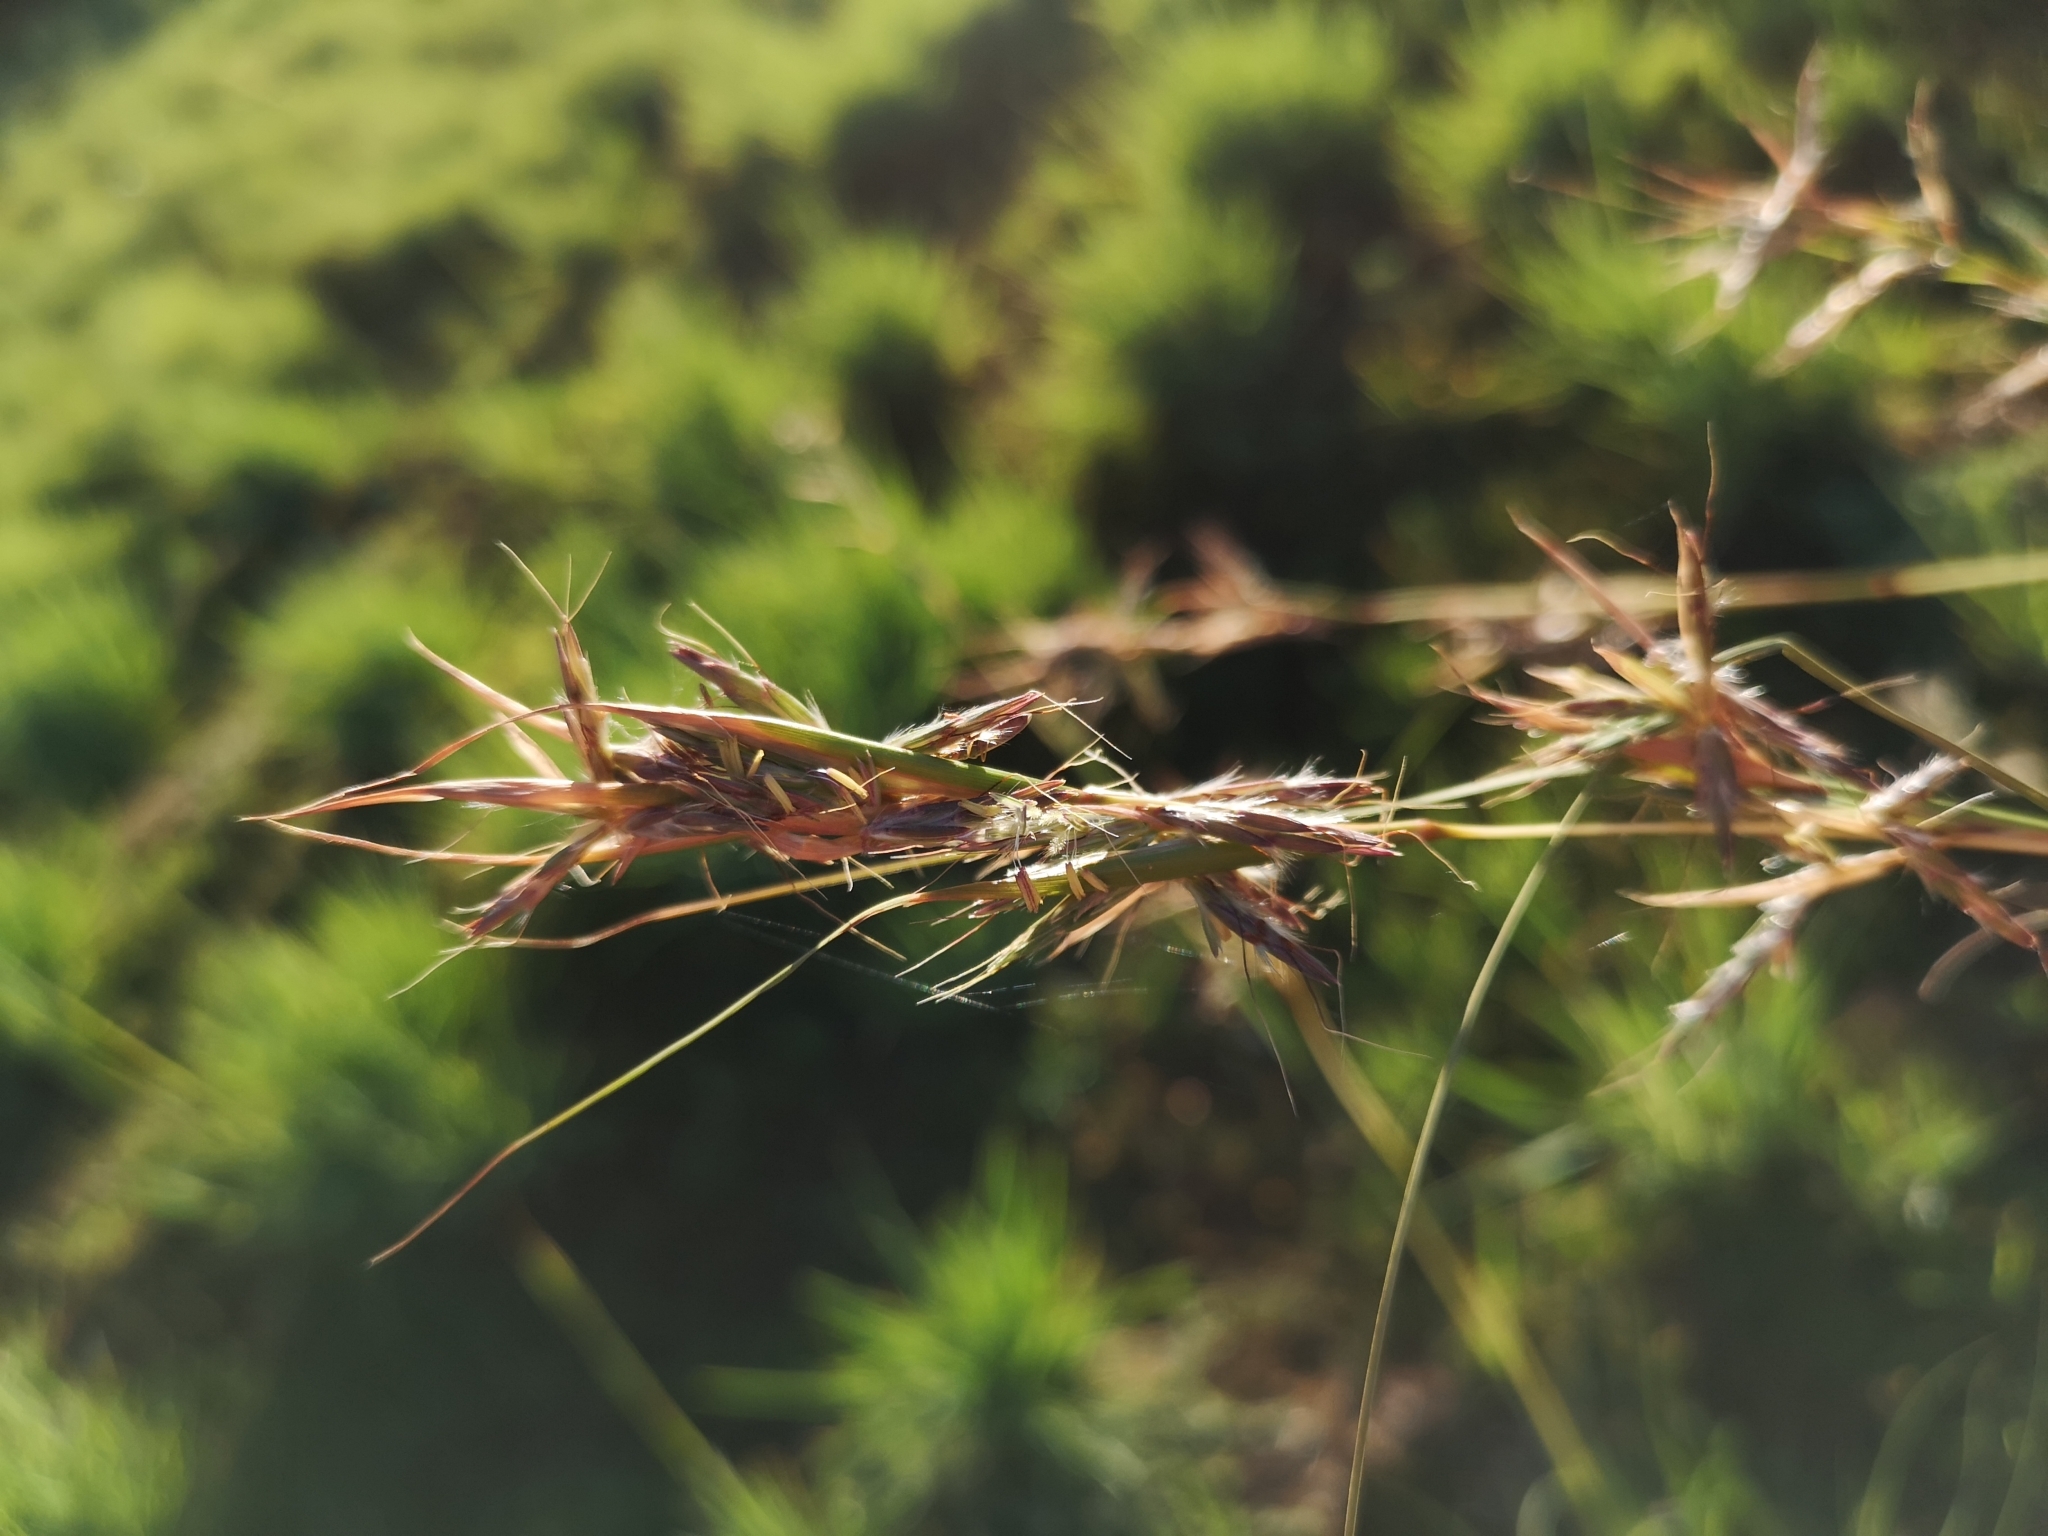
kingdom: Plantae
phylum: Tracheophyta
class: Liliopsida
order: Poales
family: Poaceae
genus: Cymbopogon
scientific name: Cymbopogon pospischilii
